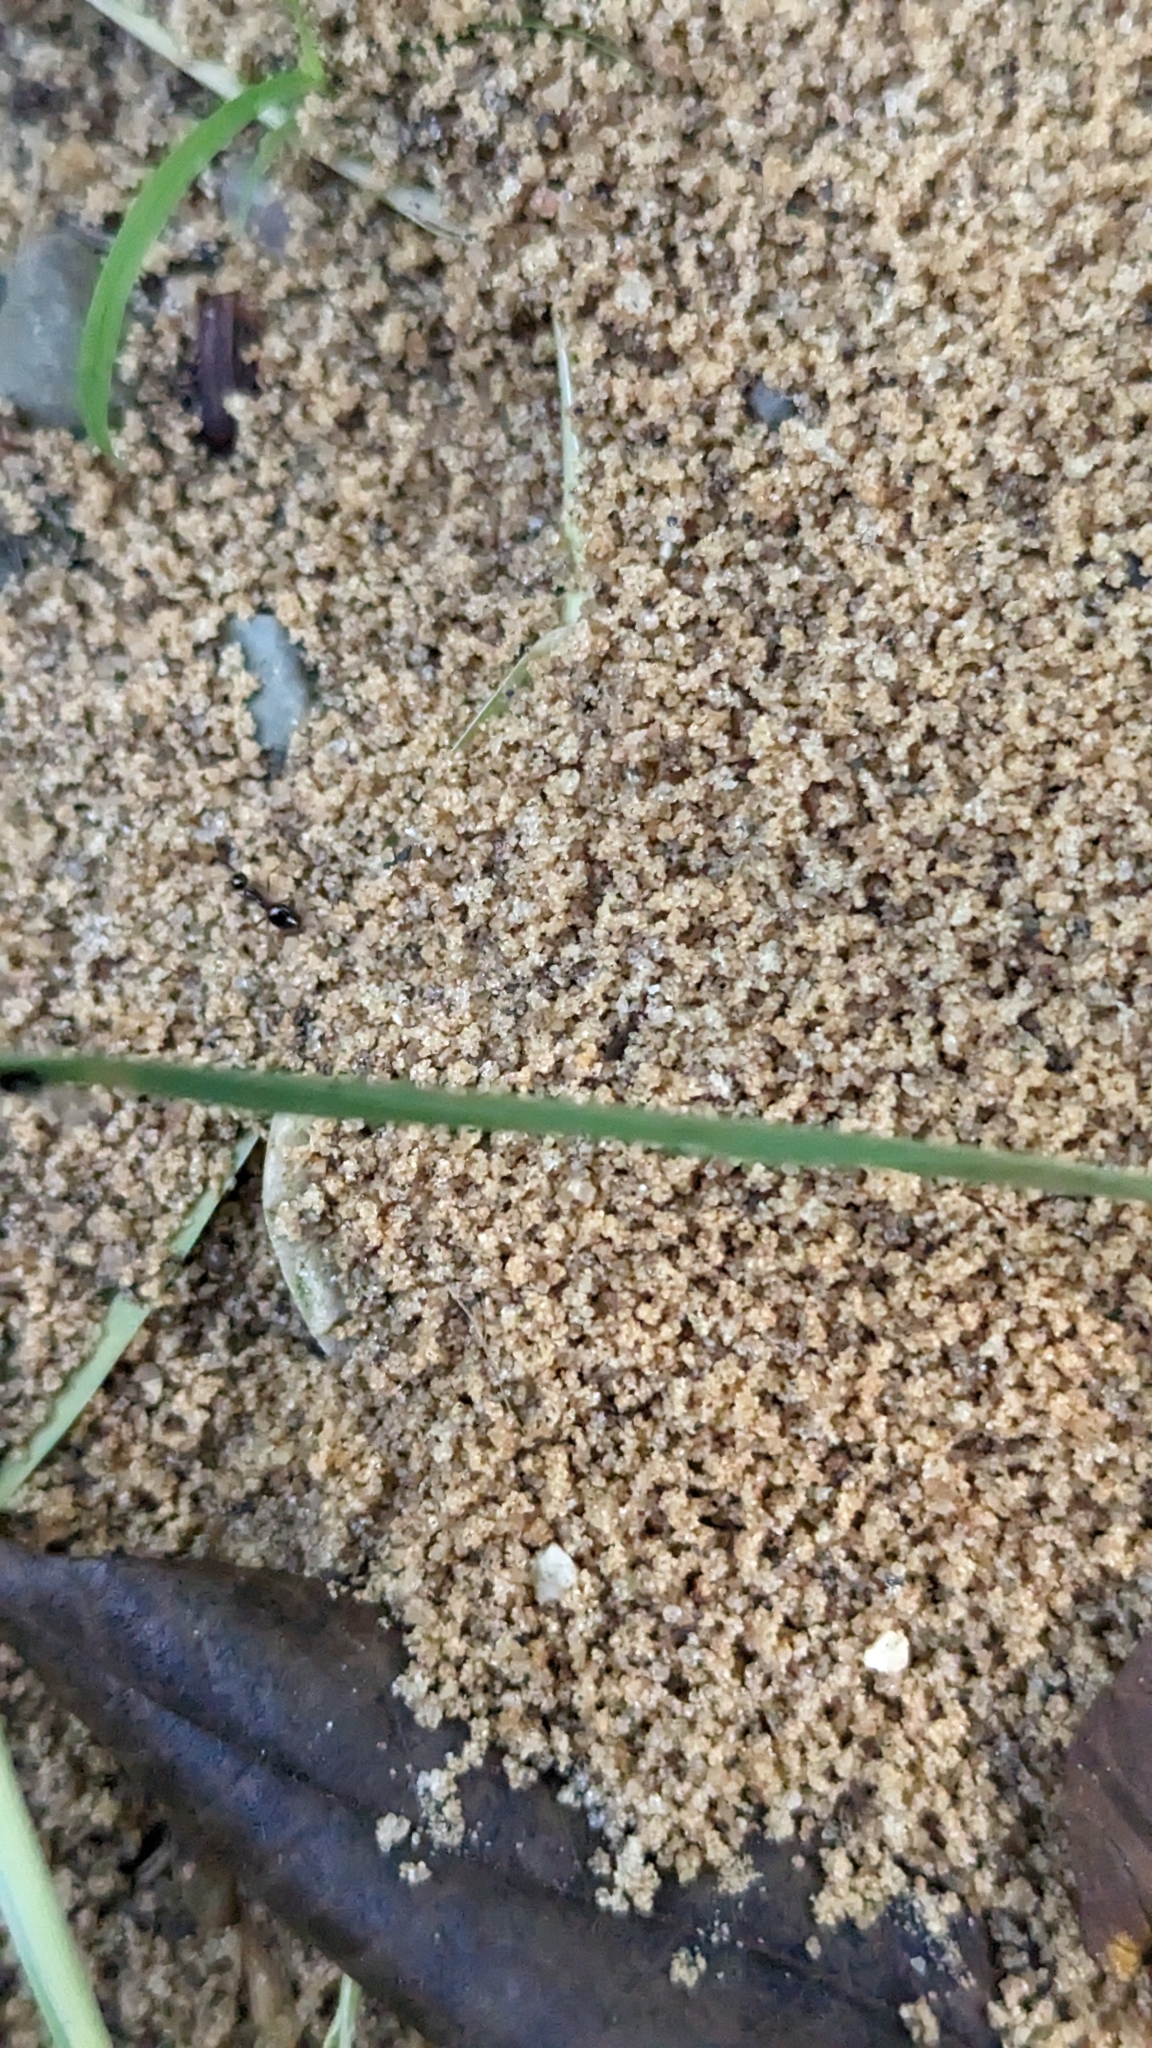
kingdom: Animalia
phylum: Arthropoda
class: Insecta
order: Hymenoptera
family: Formicidae
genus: Prenolepis
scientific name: Prenolepis imparis
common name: Small honey ant
